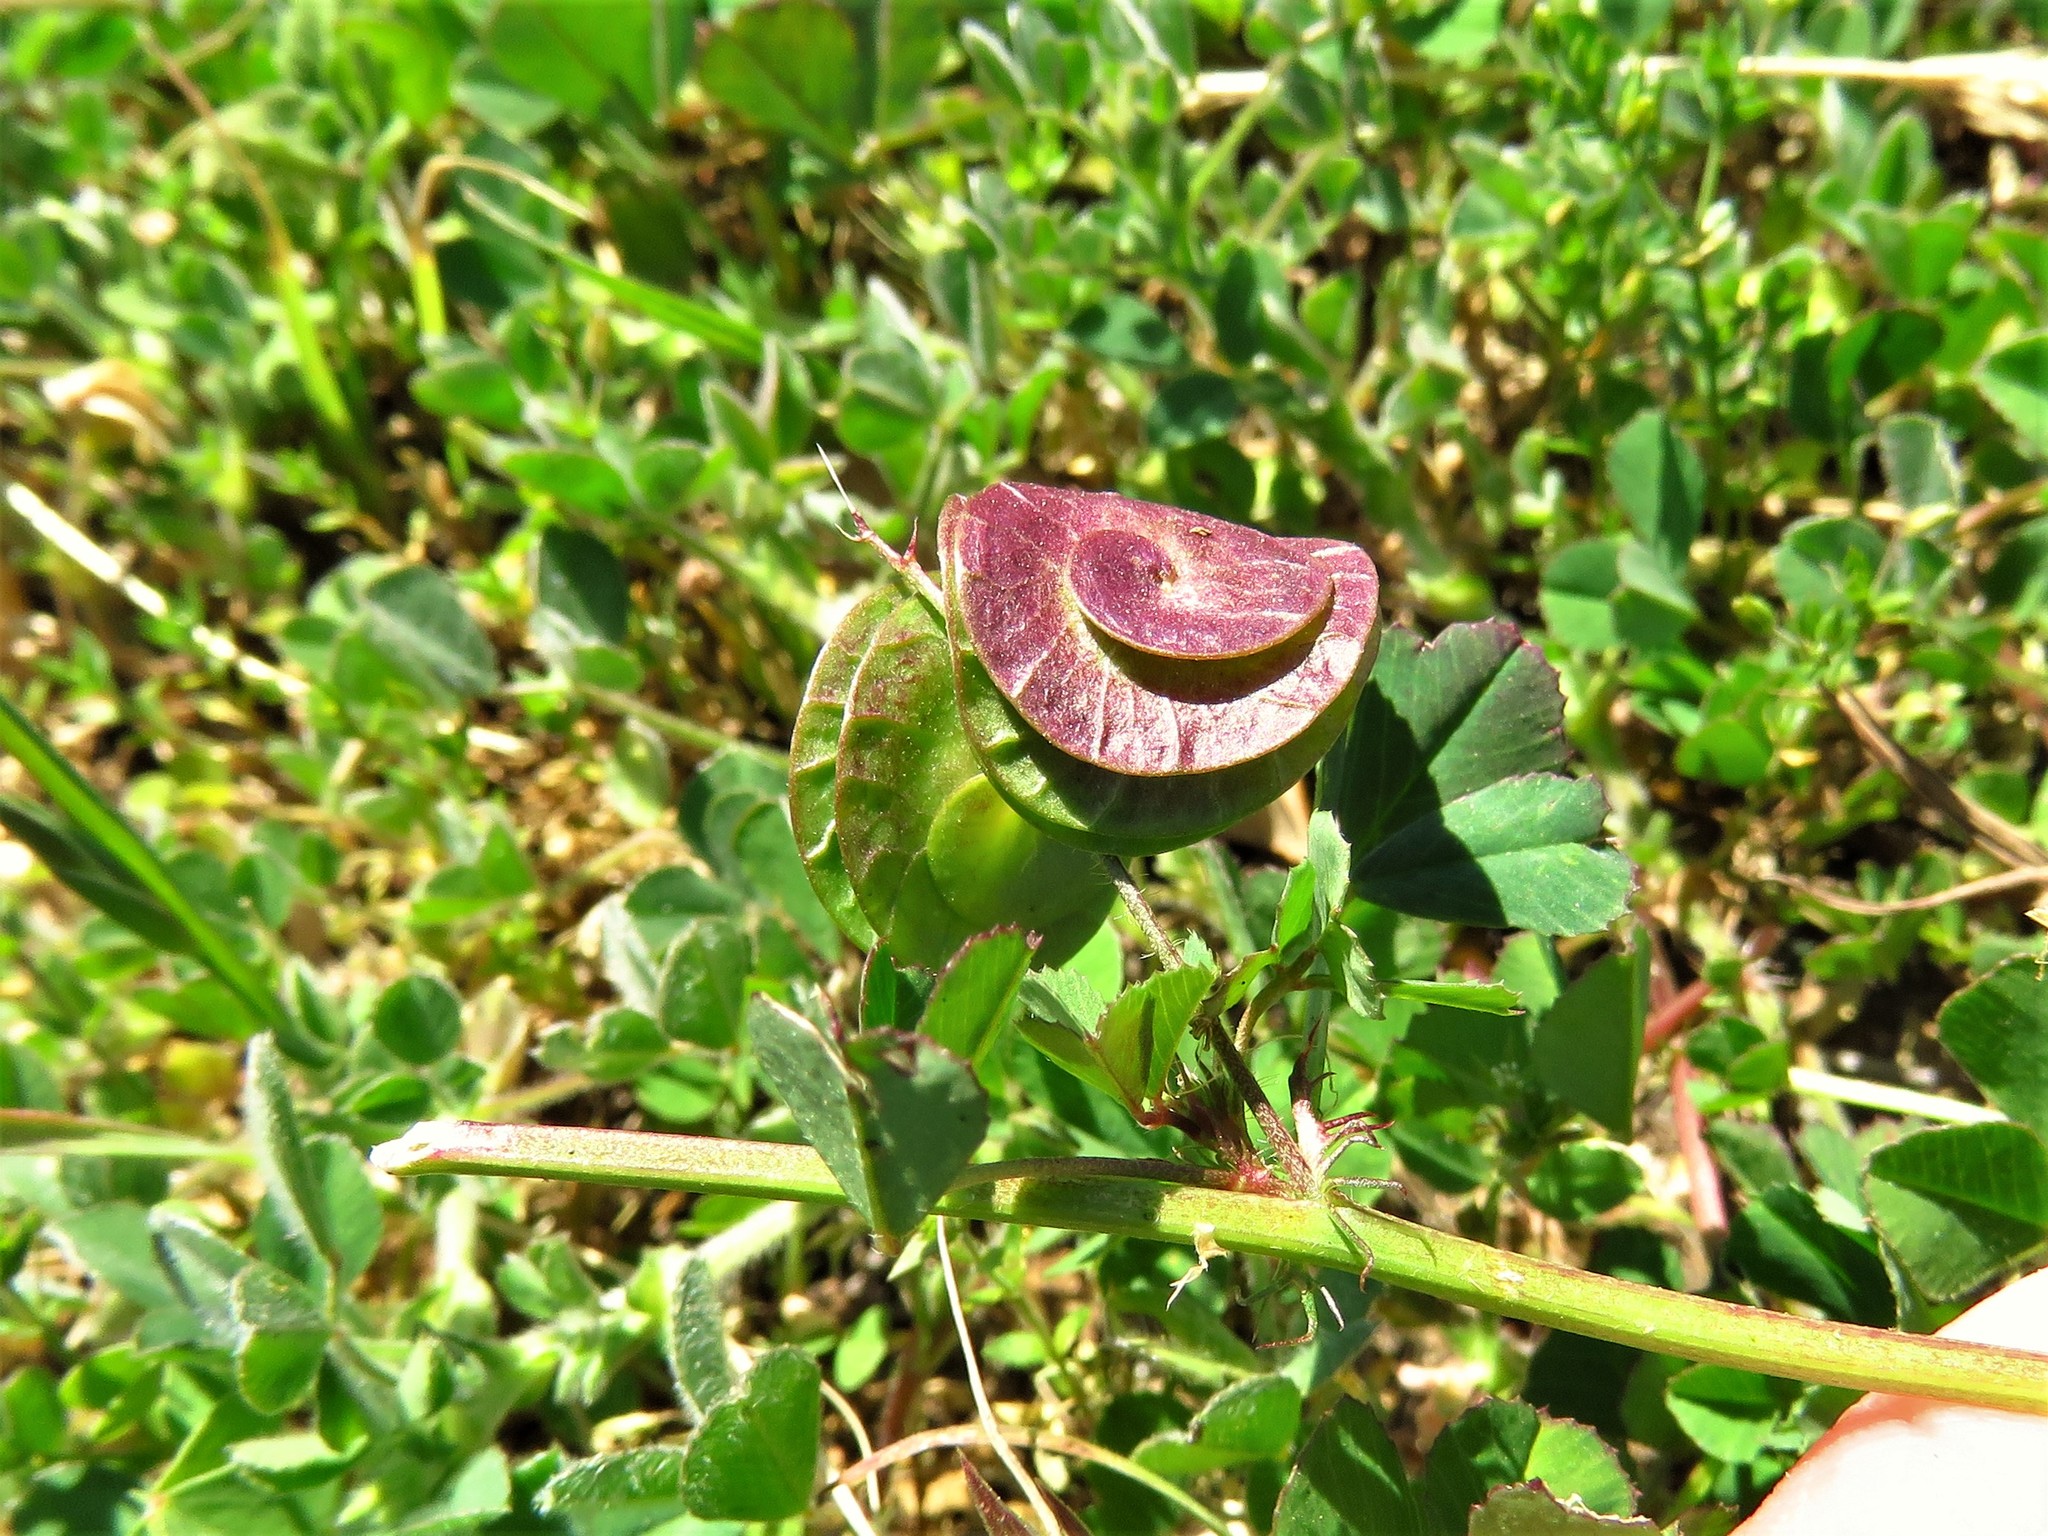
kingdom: Plantae
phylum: Tracheophyta
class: Magnoliopsida
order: Fabales
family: Fabaceae
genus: Medicago
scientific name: Medicago orbicularis
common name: Button medick
